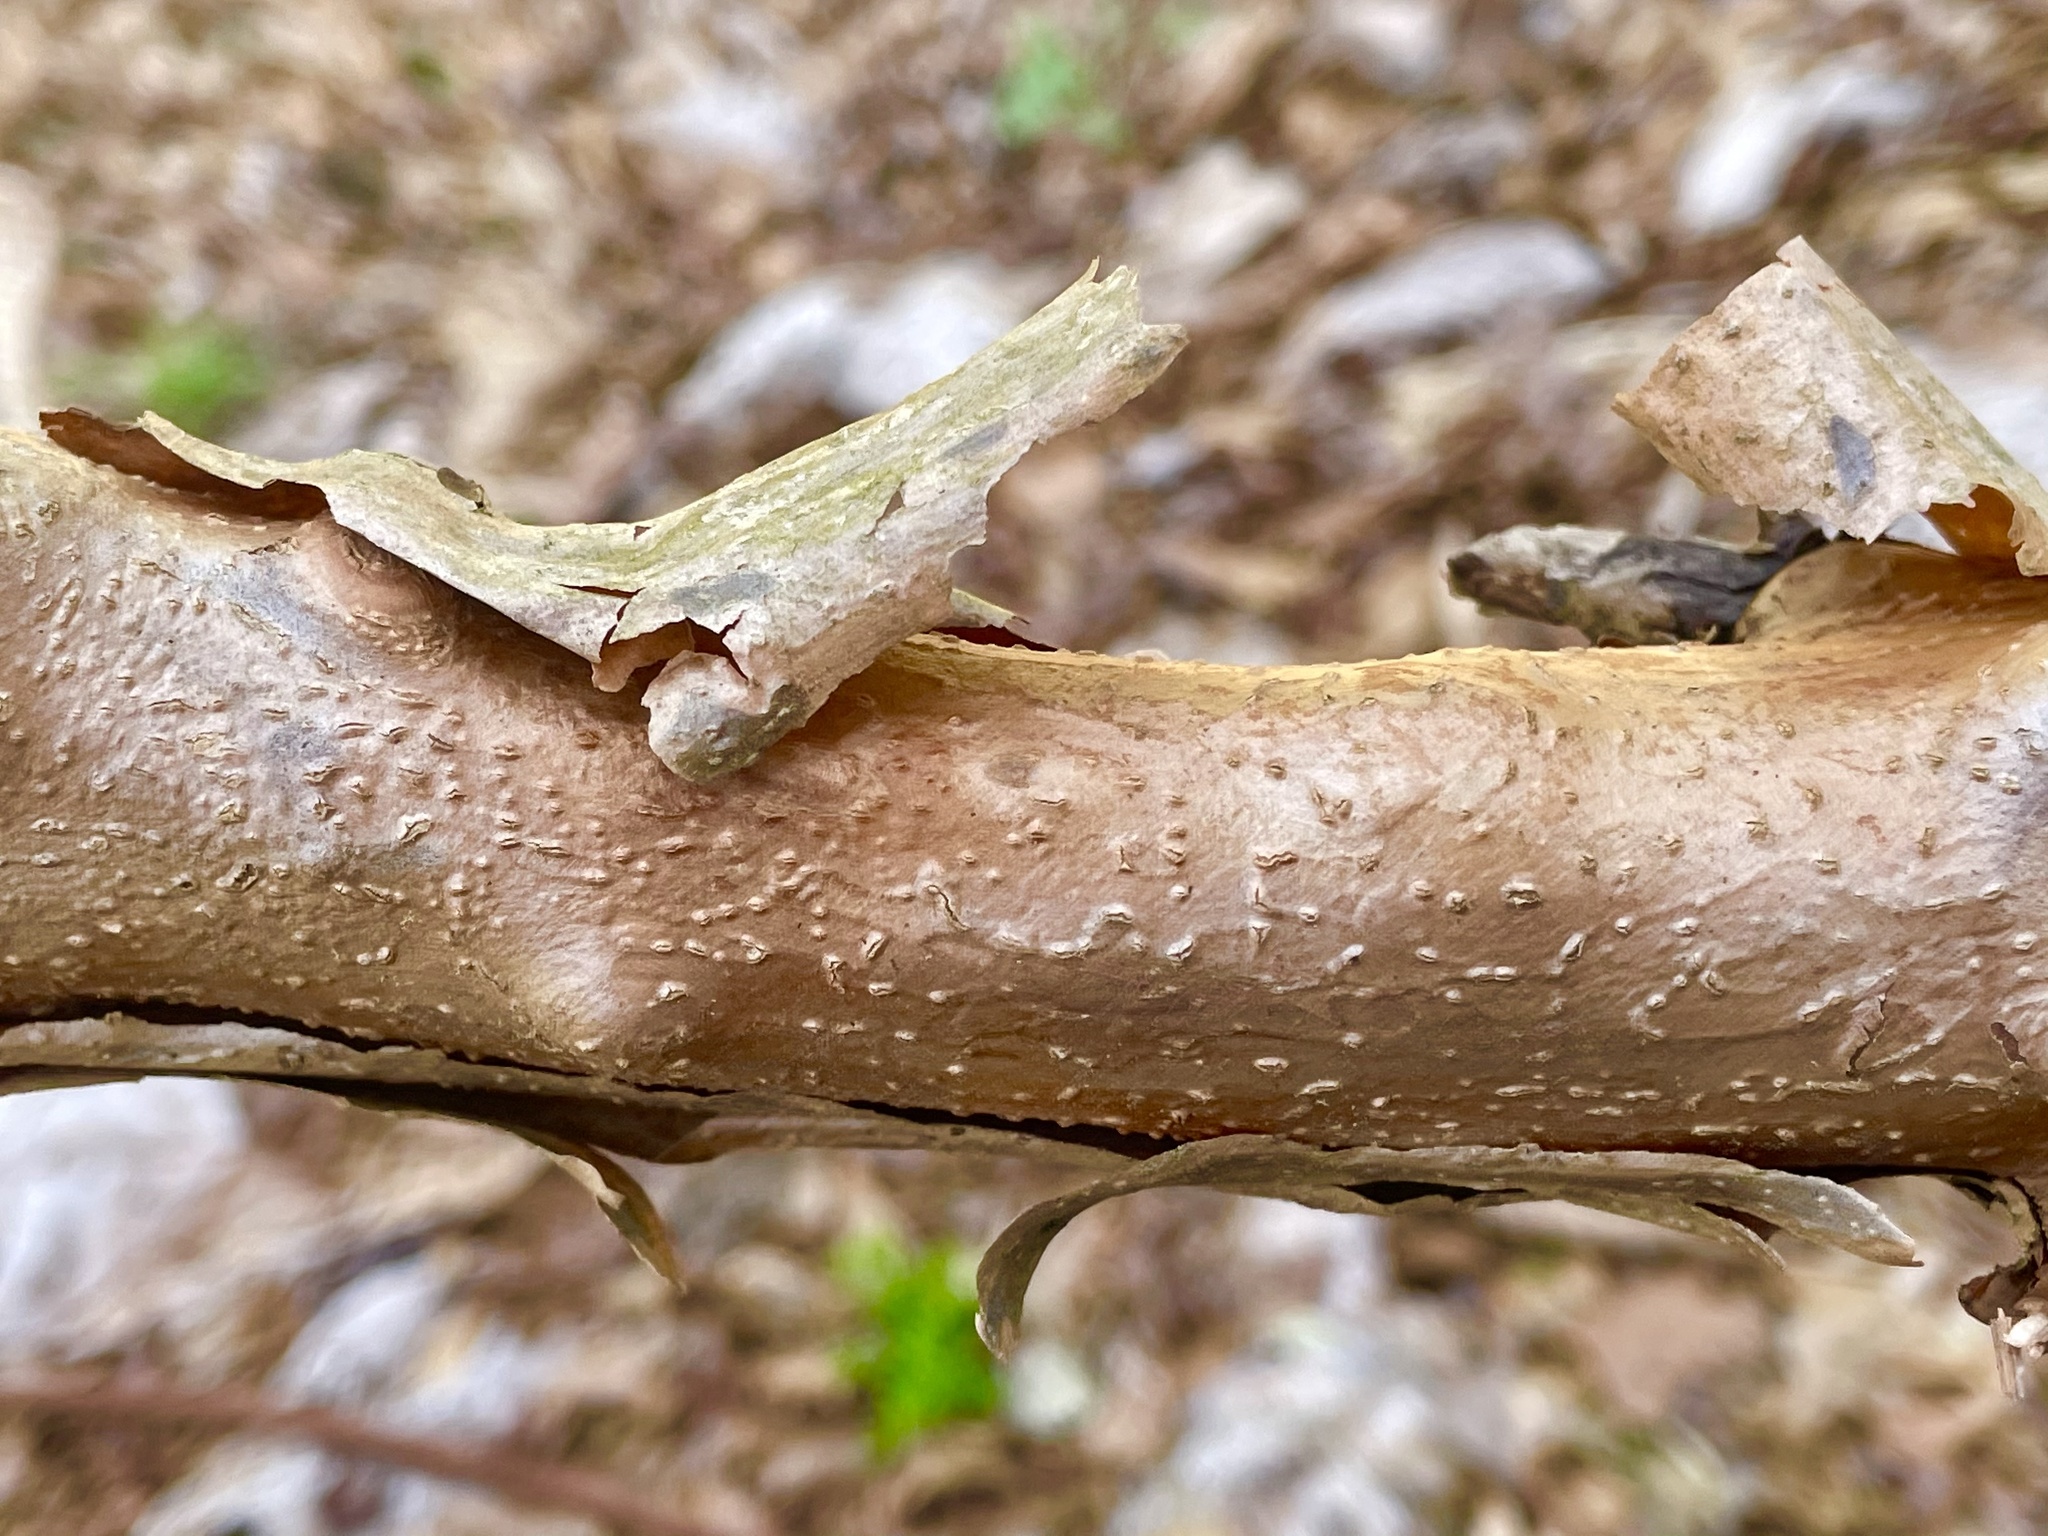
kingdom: Plantae
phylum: Tracheophyta
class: Magnoliopsida
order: Cornales
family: Hydrangeaceae
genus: Hydrangea
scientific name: Hydrangea quercifolia
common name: Oak-leaf hydrangea
